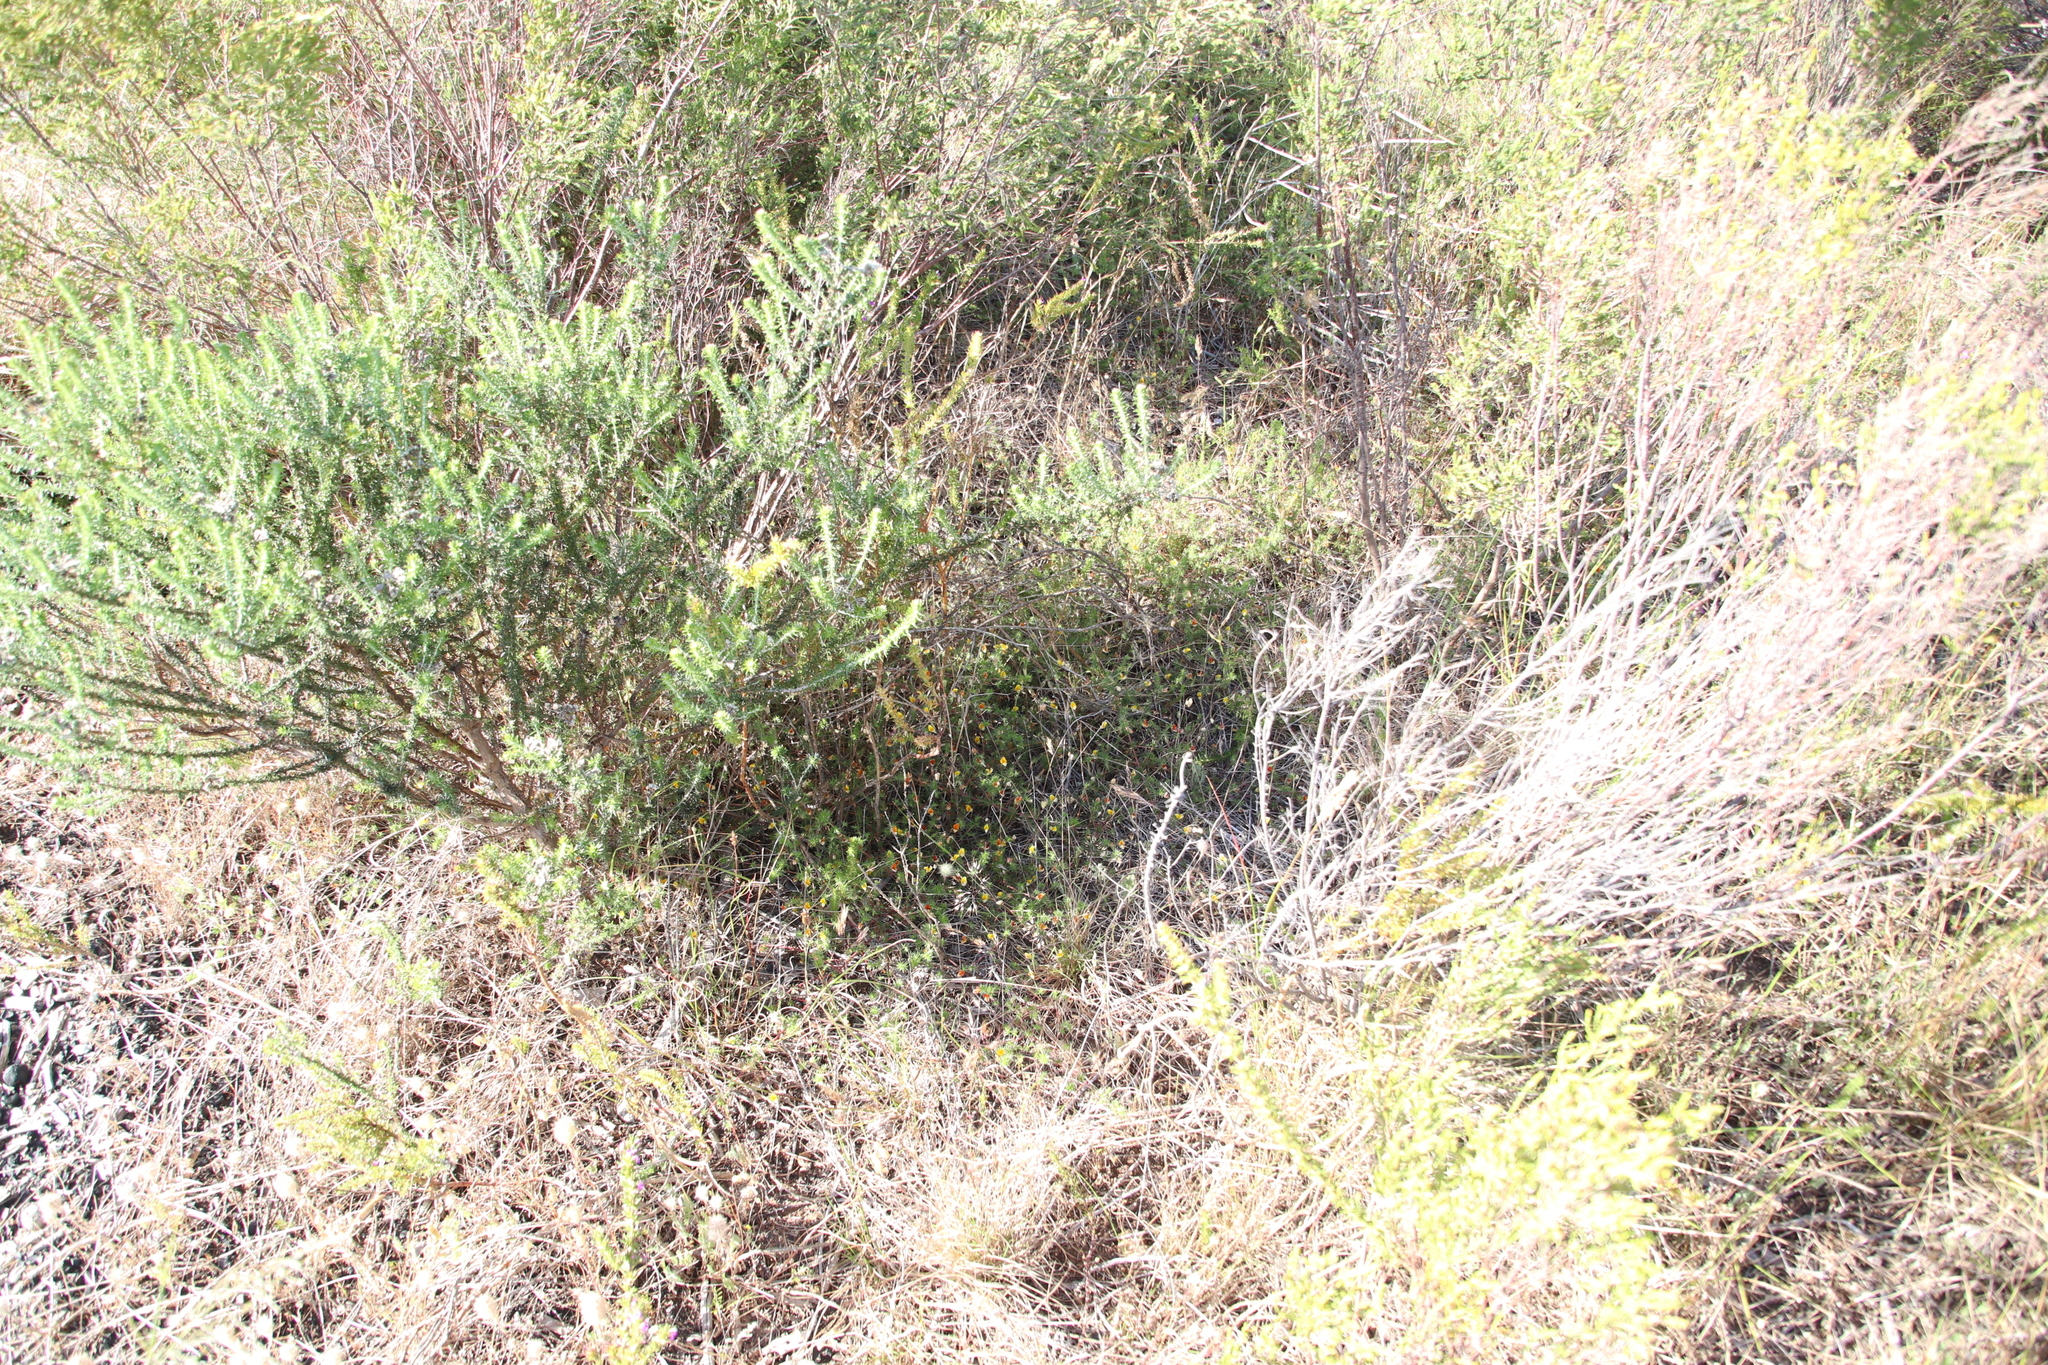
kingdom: Plantae
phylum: Tracheophyta
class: Magnoliopsida
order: Fabales
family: Fabaceae
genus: Aspalathus
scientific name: Aspalathus retroflexa
